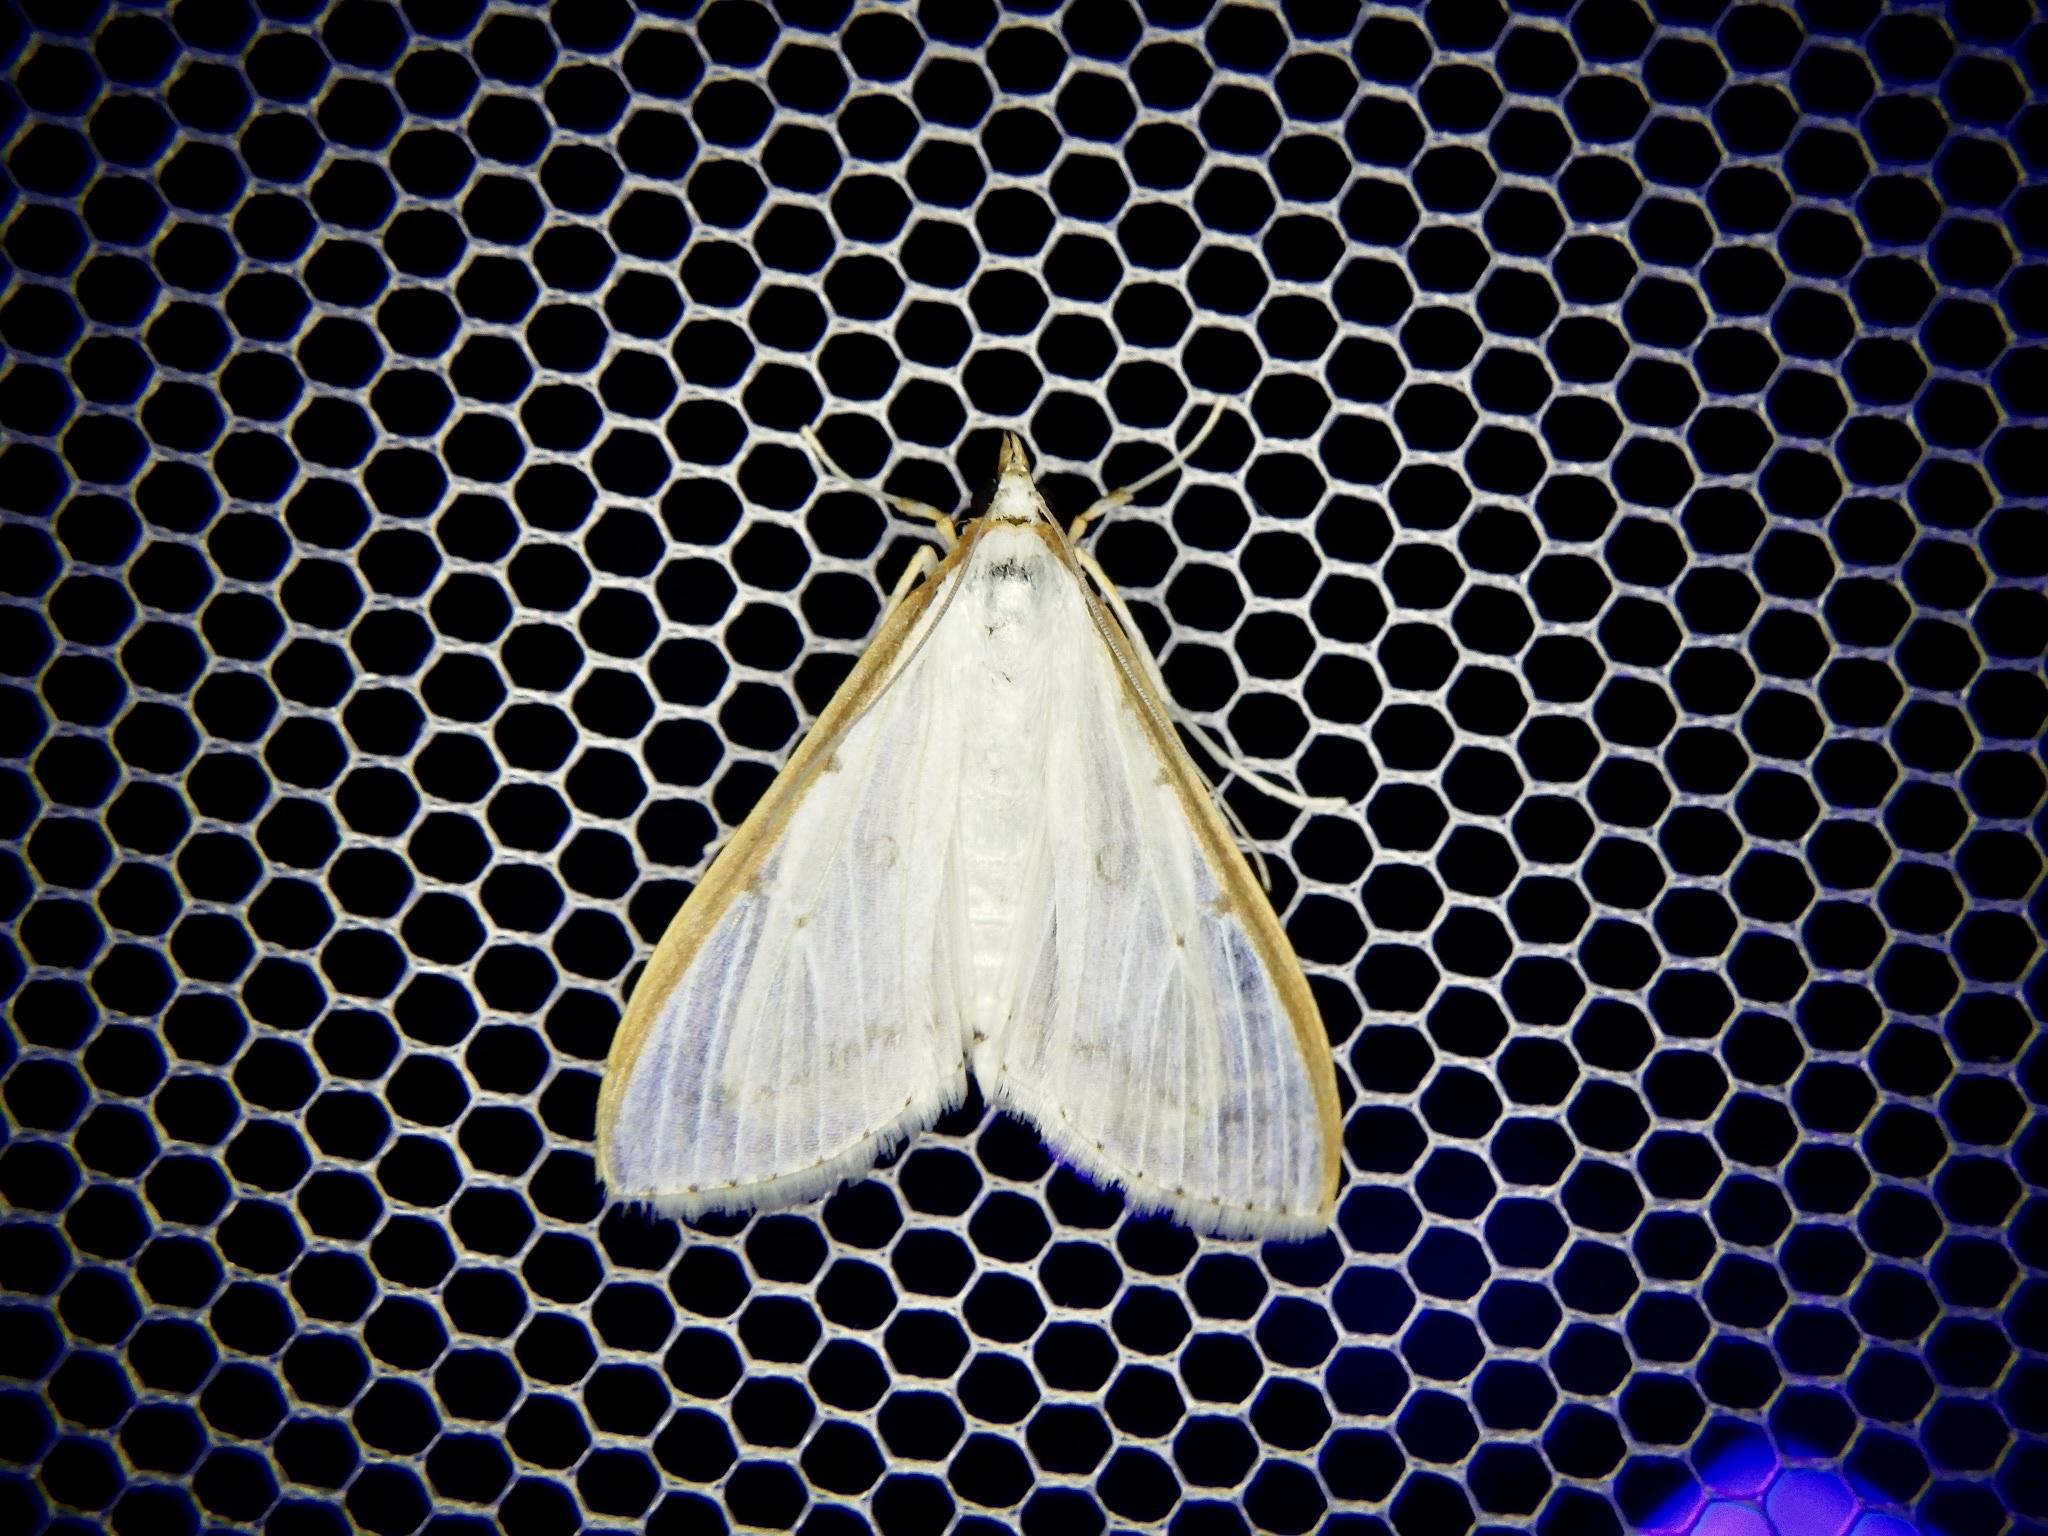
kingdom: Animalia
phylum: Arthropoda
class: Insecta
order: Lepidoptera
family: Crambidae
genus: Palpita
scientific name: Palpita nigropunctalis
